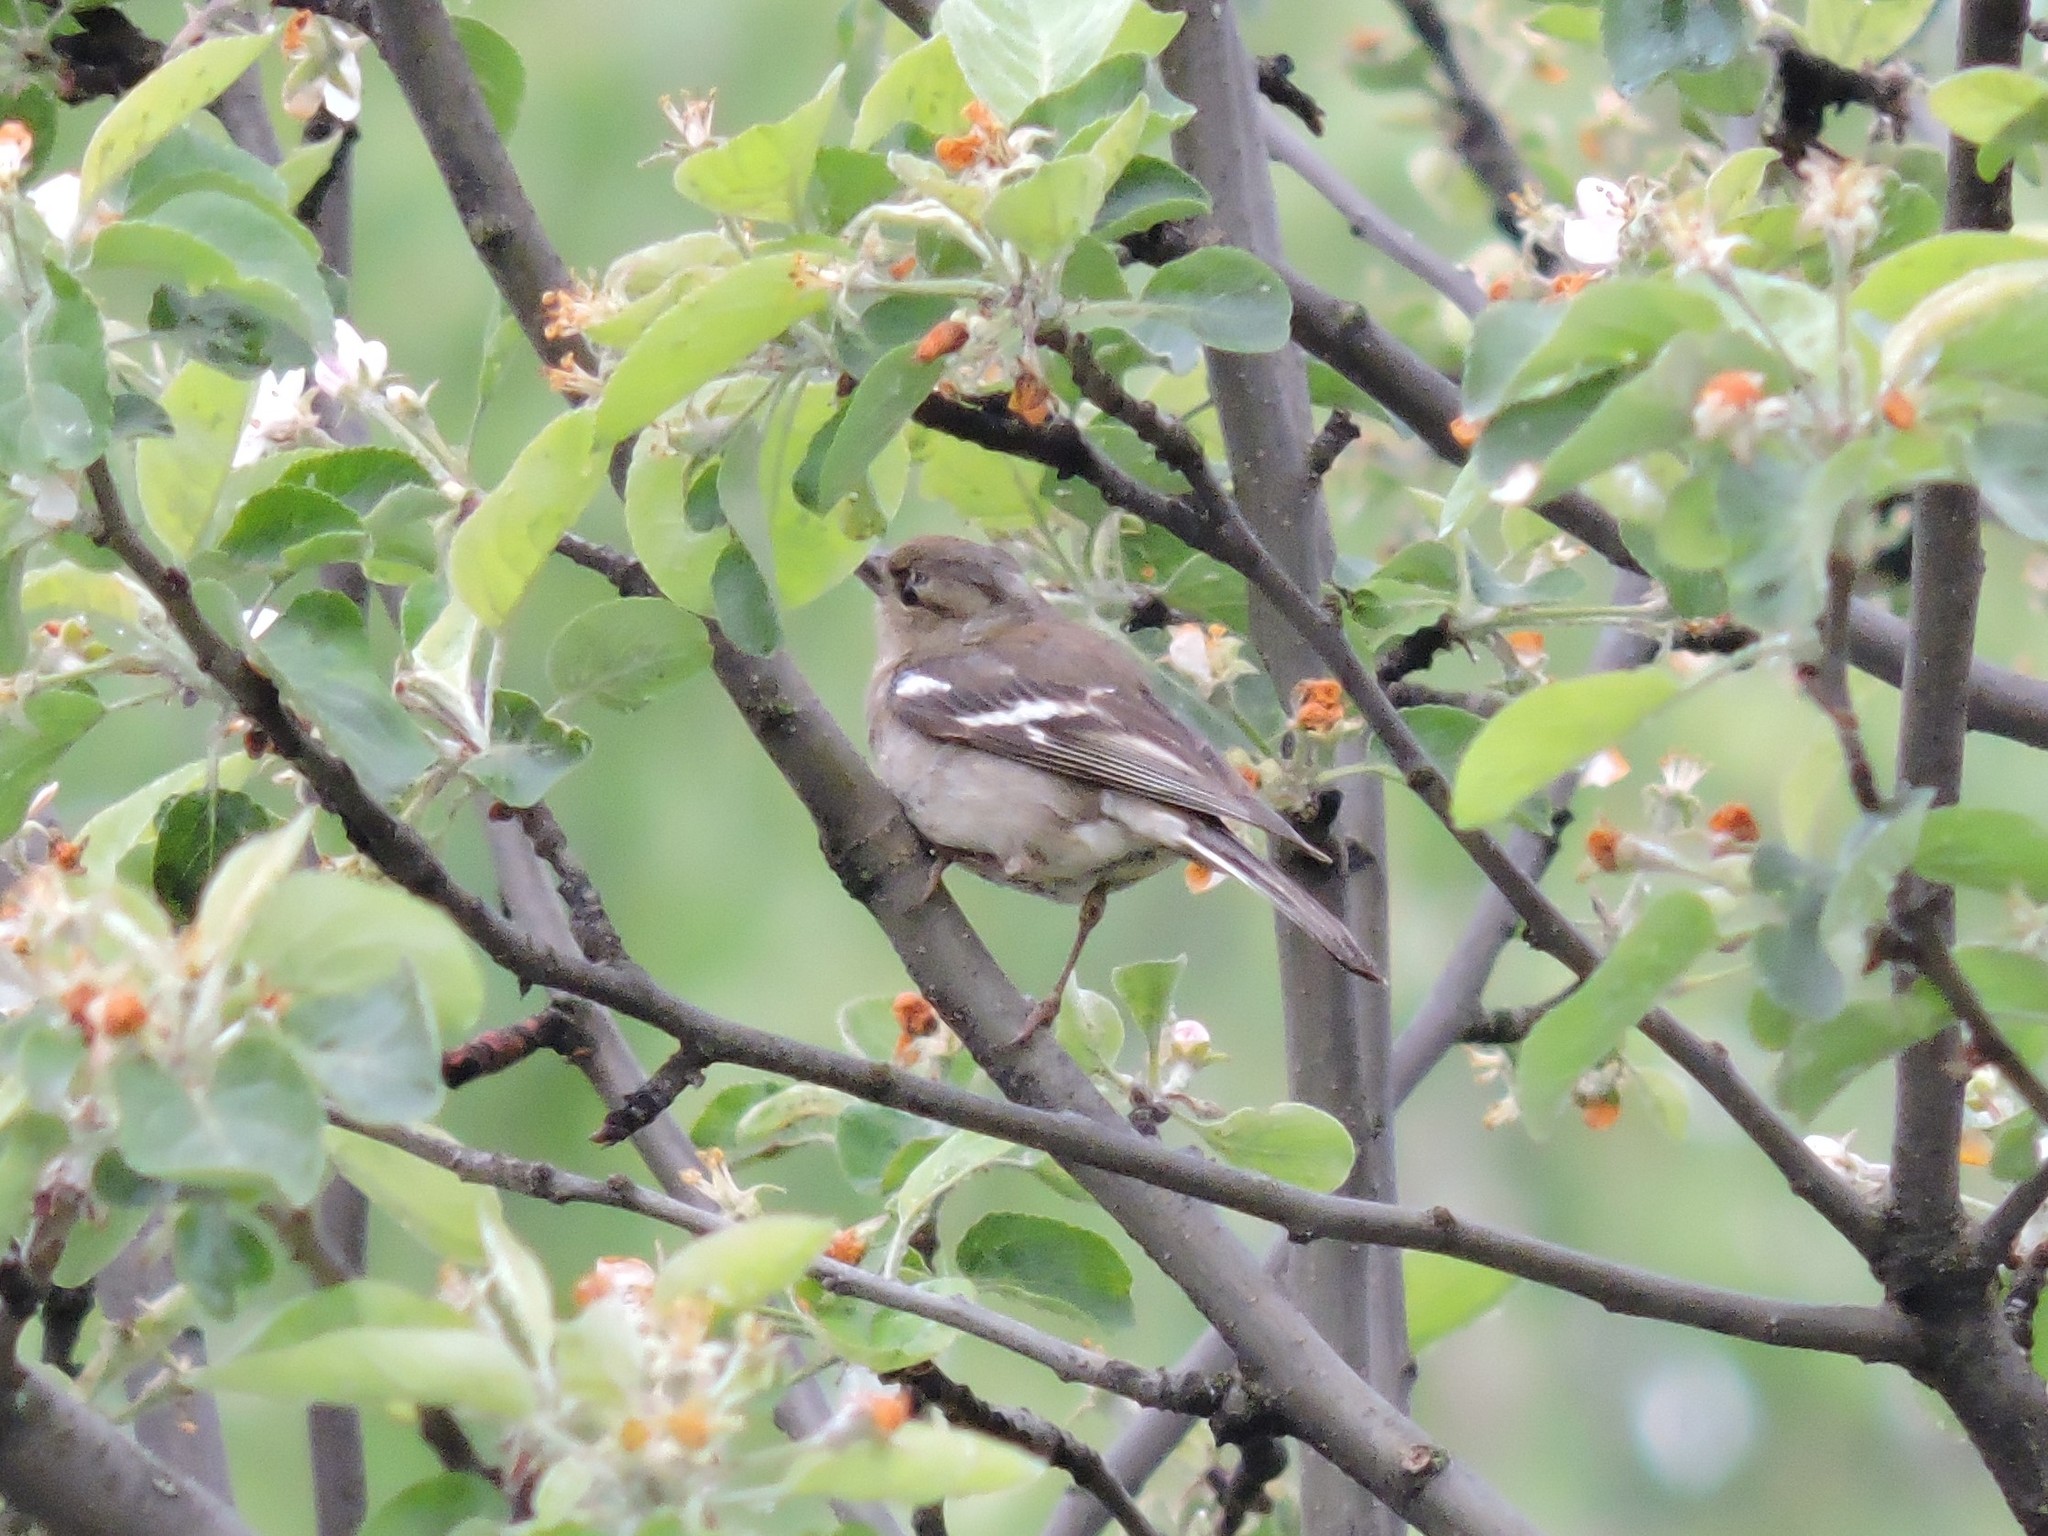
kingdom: Animalia
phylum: Chordata
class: Aves
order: Passeriformes
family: Fringillidae
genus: Fringilla
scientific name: Fringilla coelebs
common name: Common chaffinch
